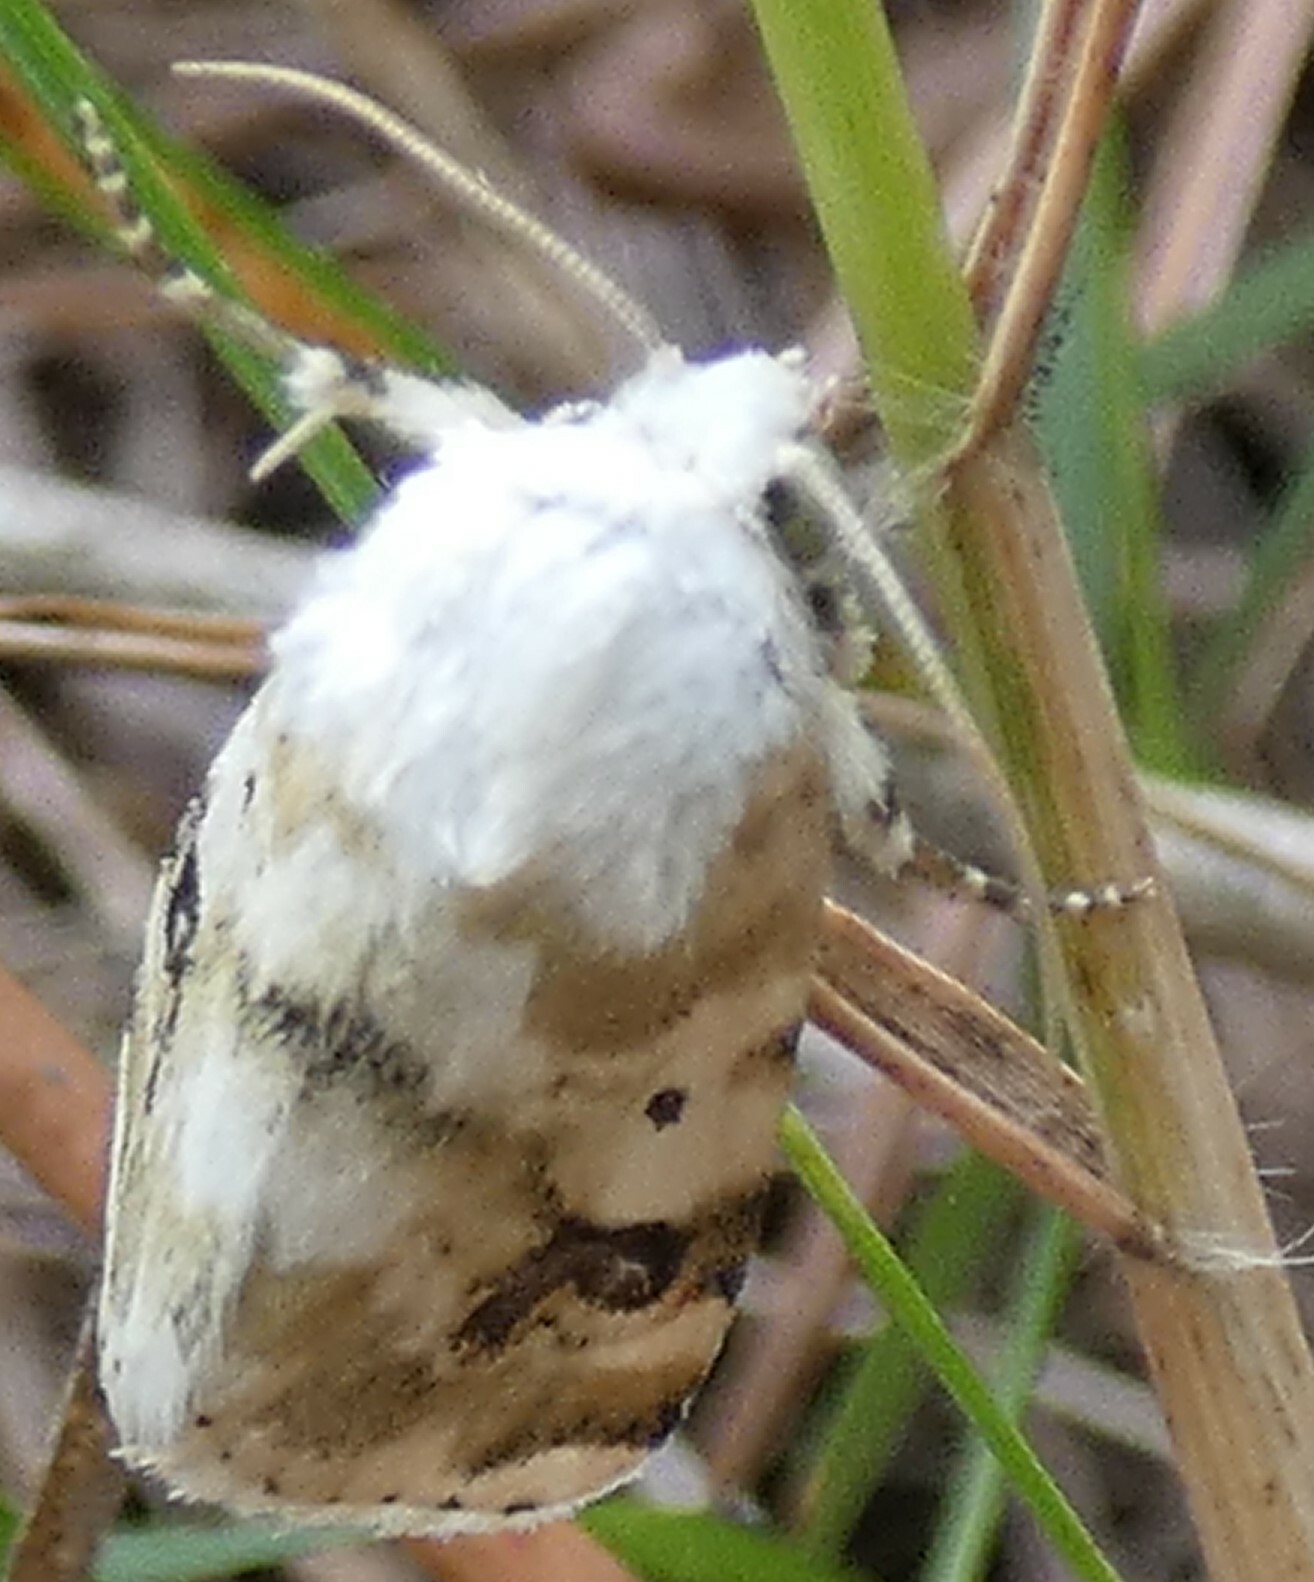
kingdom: Animalia
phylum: Arthropoda
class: Insecta
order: Lepidoptera
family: Noctuidae
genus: Schinia
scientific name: Schinia nundina
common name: Goldenrod flower moth
